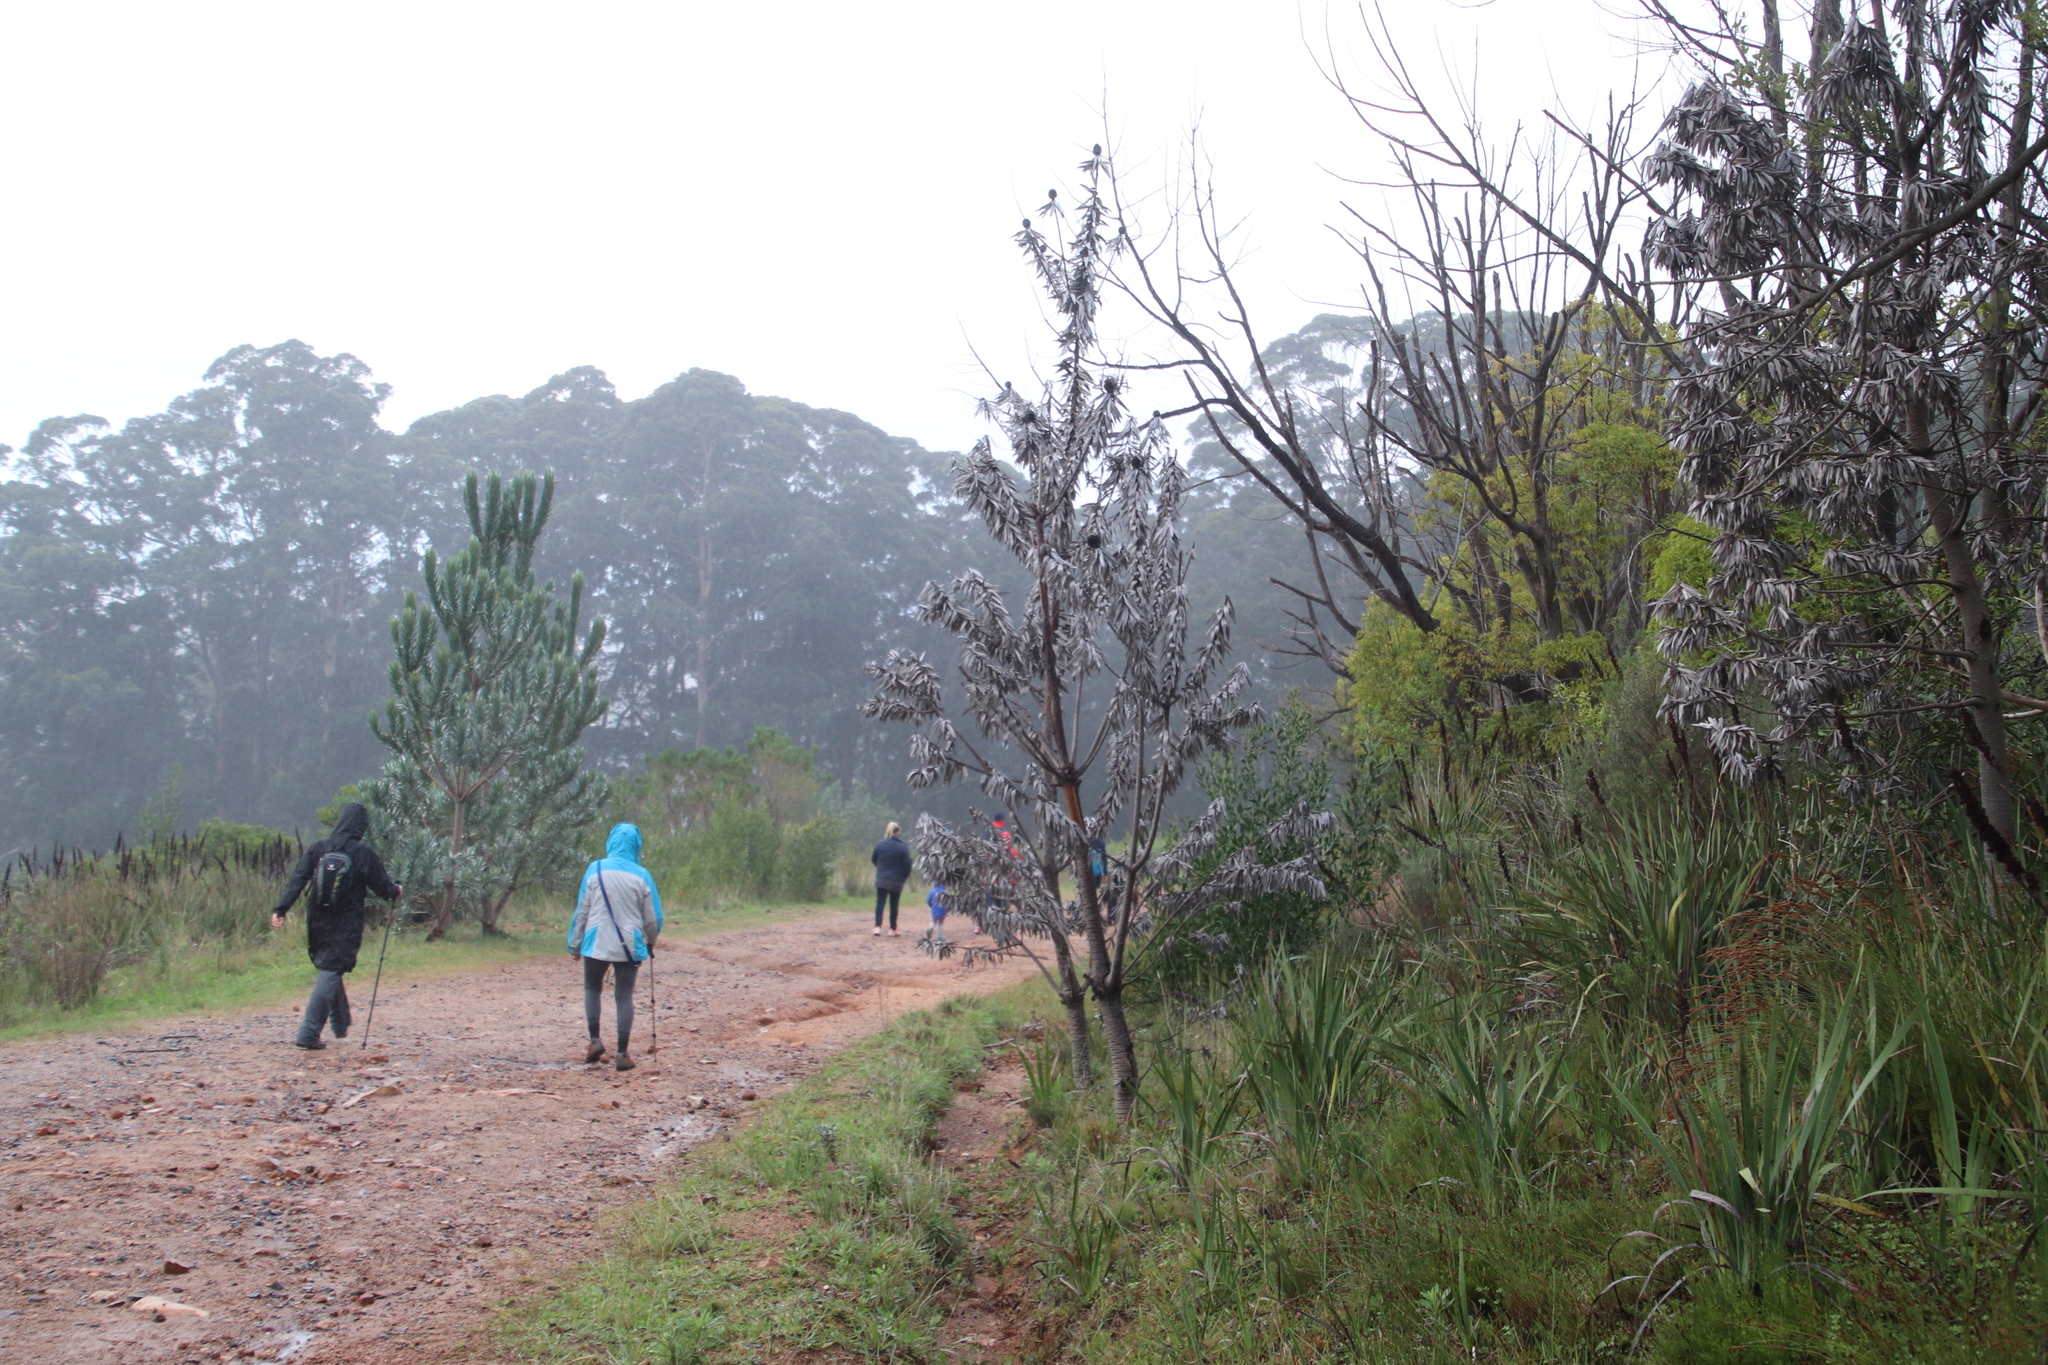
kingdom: Plantae
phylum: Tracheophyta
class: Magnoliopsida
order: Proteales
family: Proteaceae
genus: Leucadendron
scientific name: Leucadendron argenteum
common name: Cape silver tree
